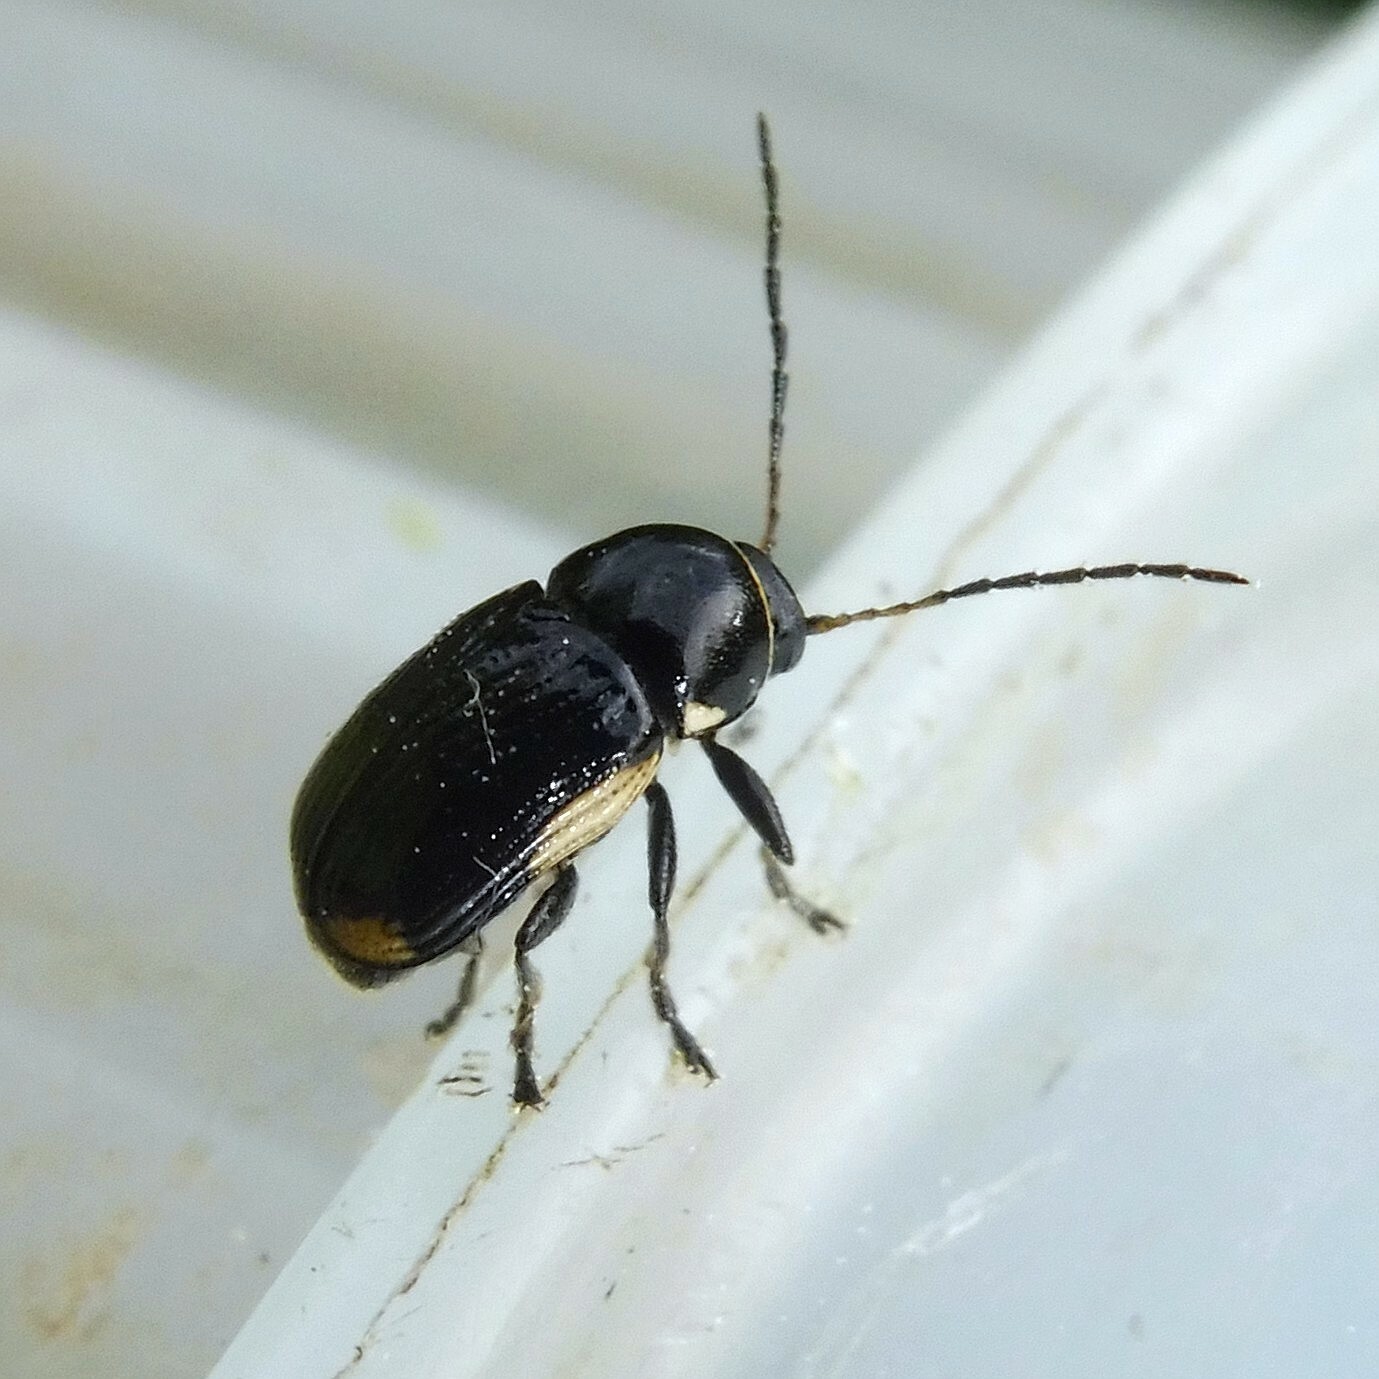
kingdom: Animalia
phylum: Arthropoda
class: Insecta
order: Coleoptera
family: Chrysomelidae
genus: Cryptocephalus
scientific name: Cryptocephalus moraei
